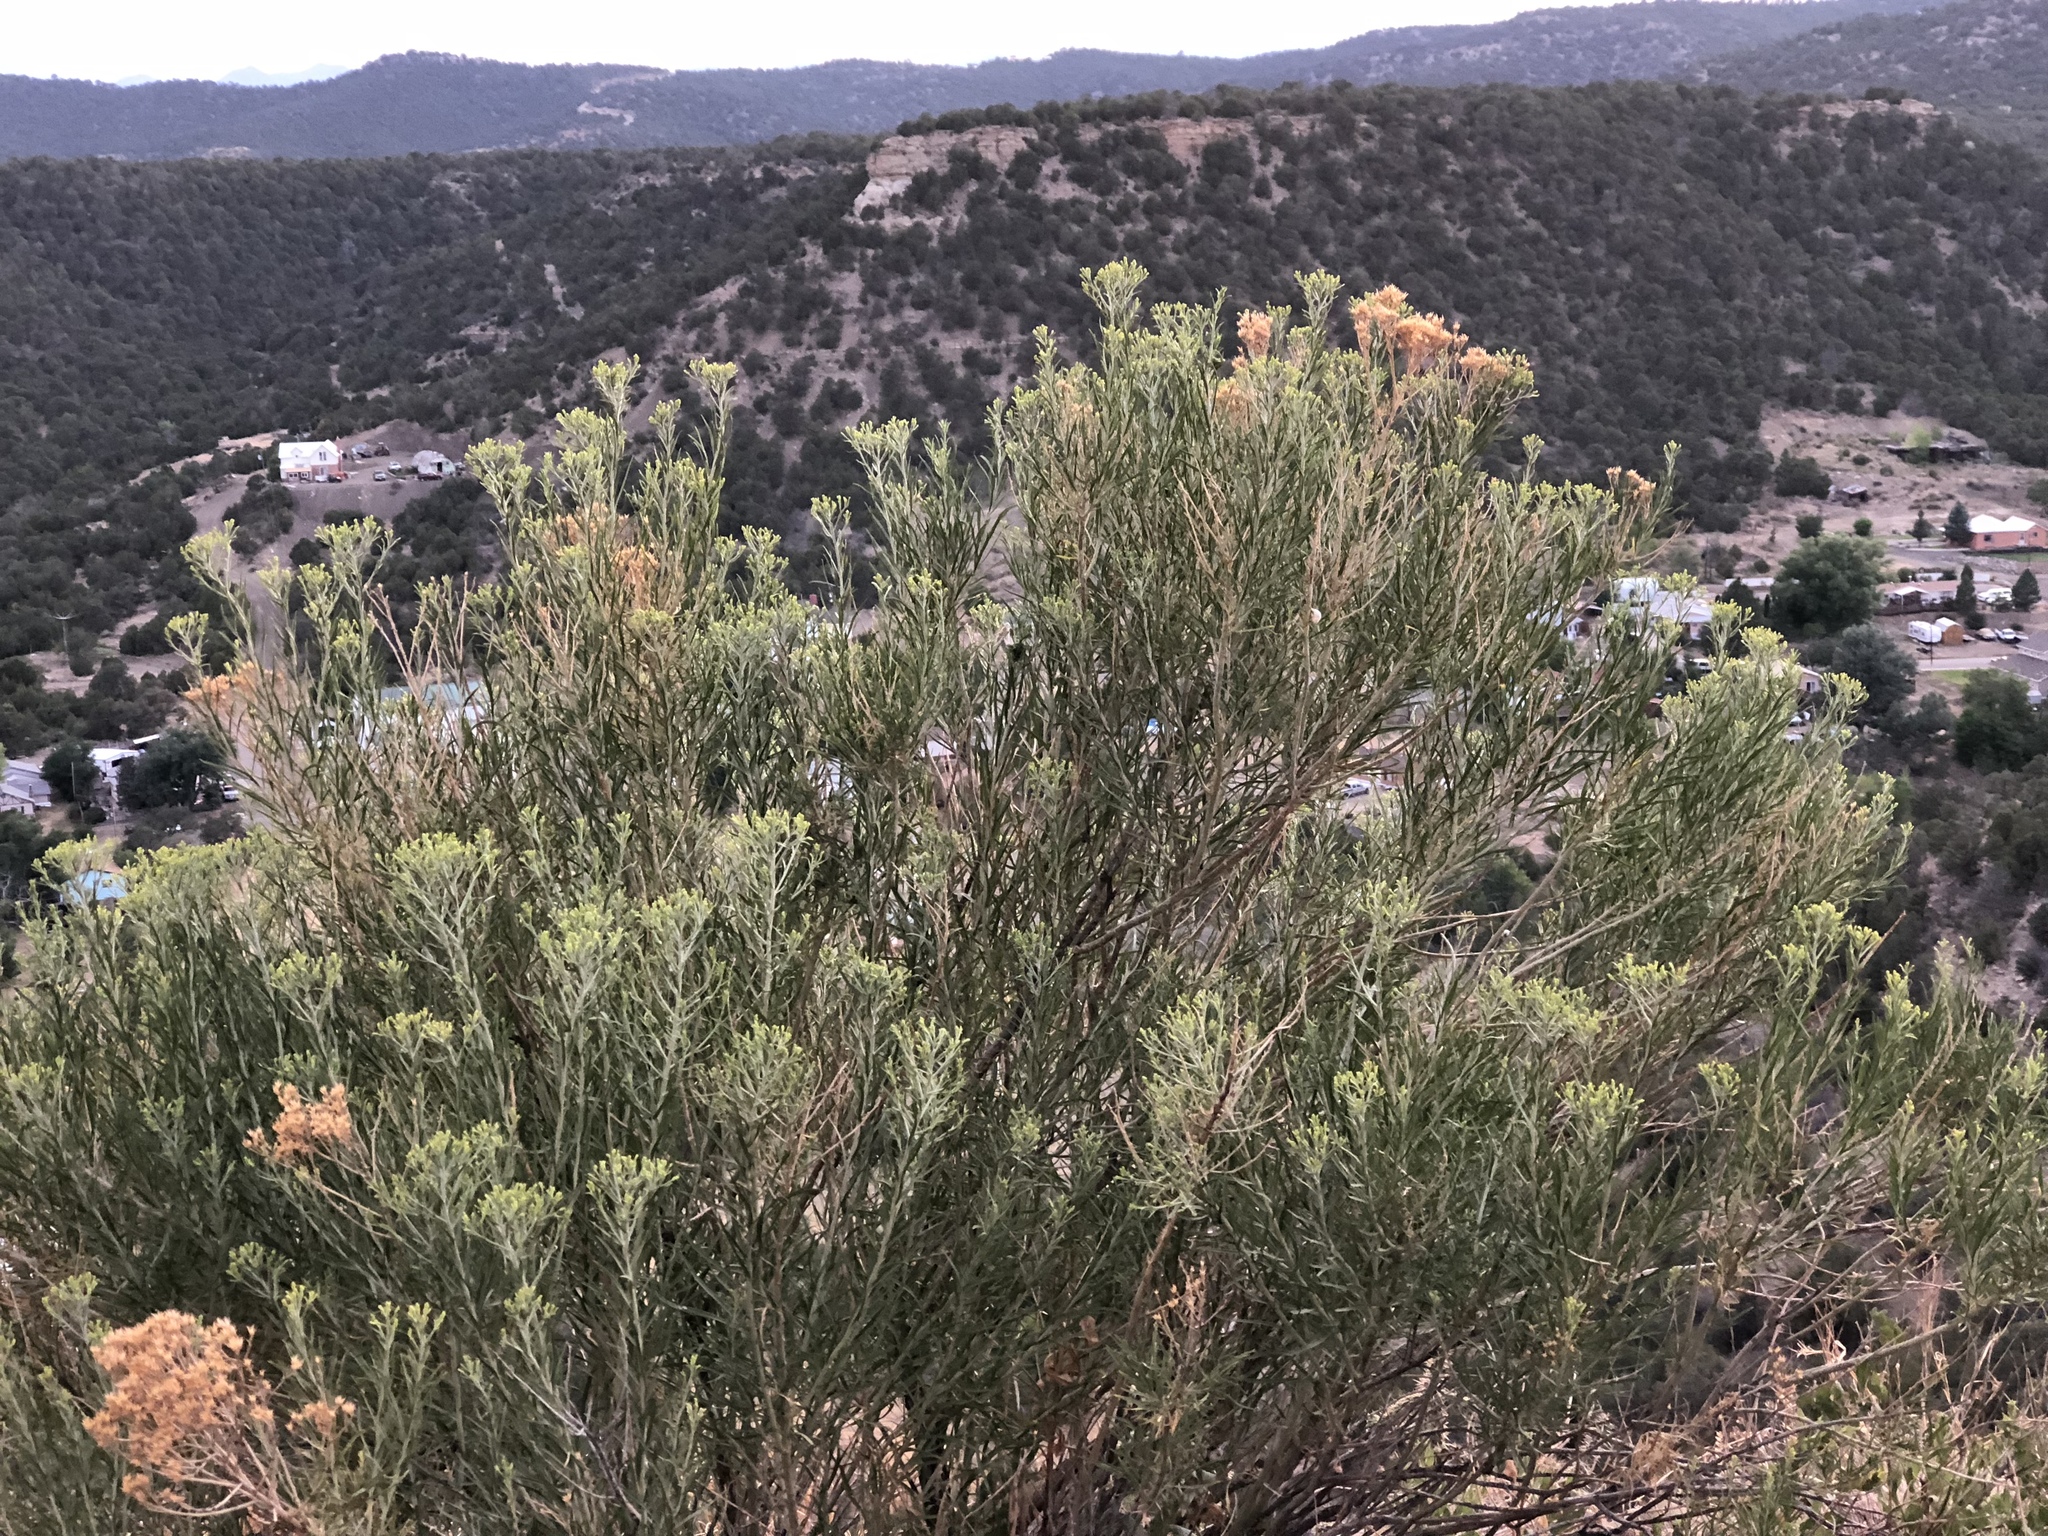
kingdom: Plantae
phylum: Tracheophyta
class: Magnoliopsida
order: Asterales
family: Asteraceae
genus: Ericameria
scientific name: Ericameria nauseosa
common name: Rubber rabbitbrush
